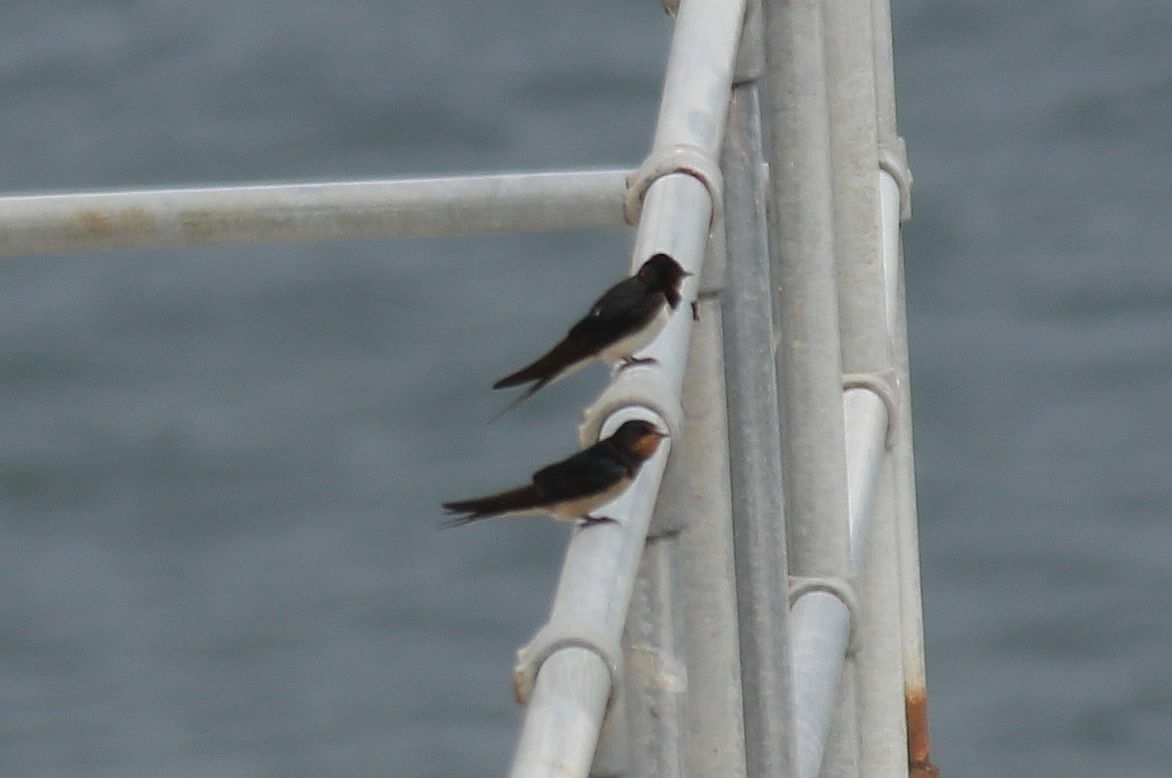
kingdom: Animalia
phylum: Chordata
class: Aves
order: Passeriformes
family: Hirundinidae
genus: Hirundo
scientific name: Hirundo rustica
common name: Barn swallow
